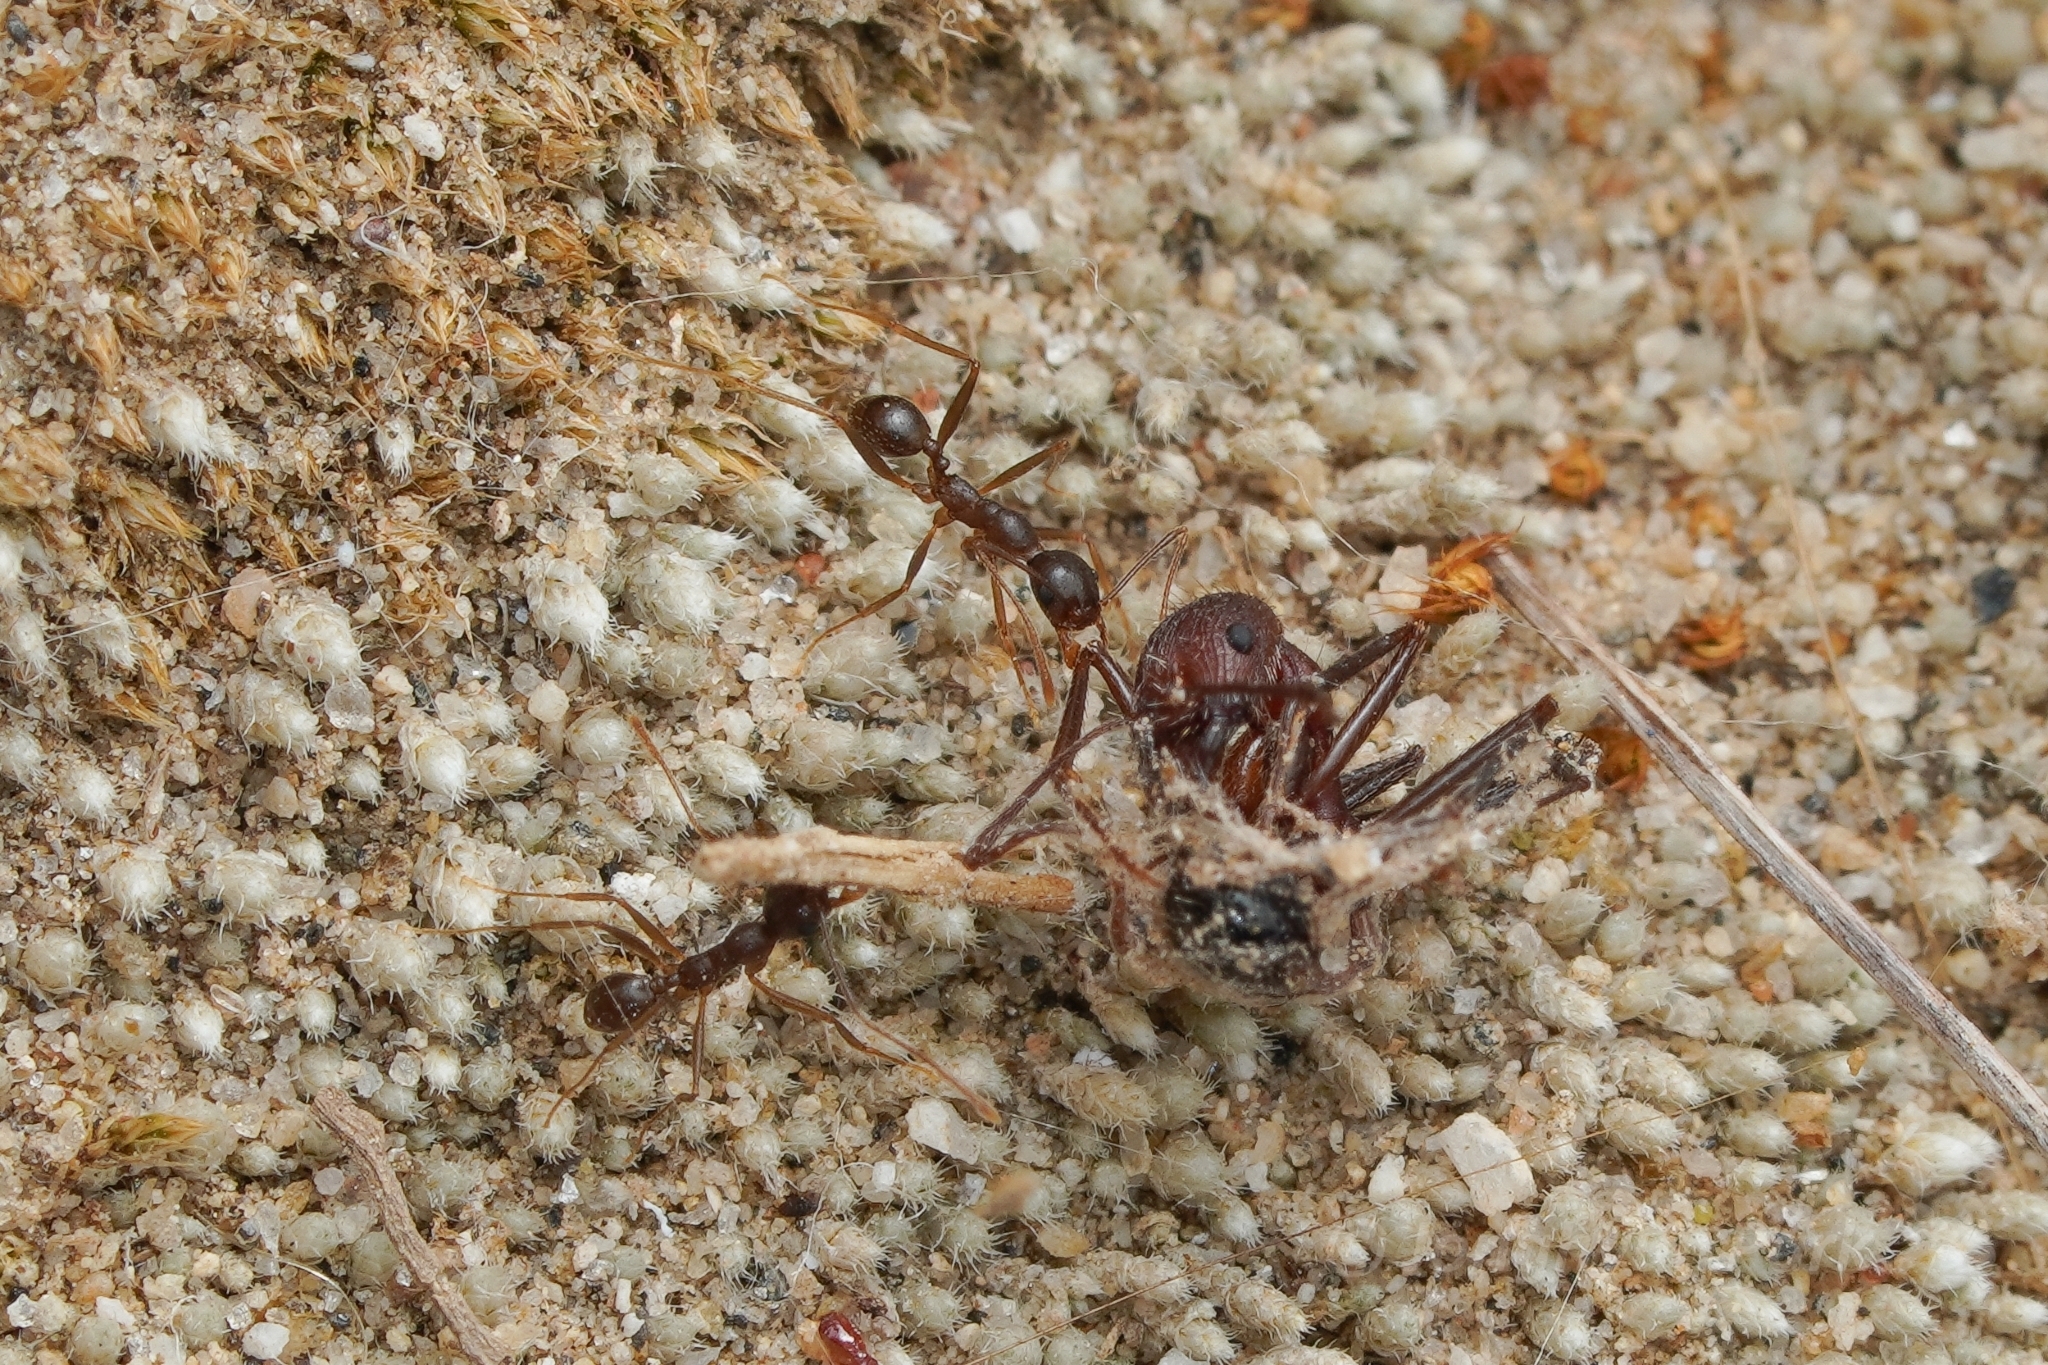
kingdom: Animalia
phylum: Arthropoda
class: Insecta
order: Hymenoptera
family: Formicidae
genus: Pheidole
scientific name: Pheidole portalensis
